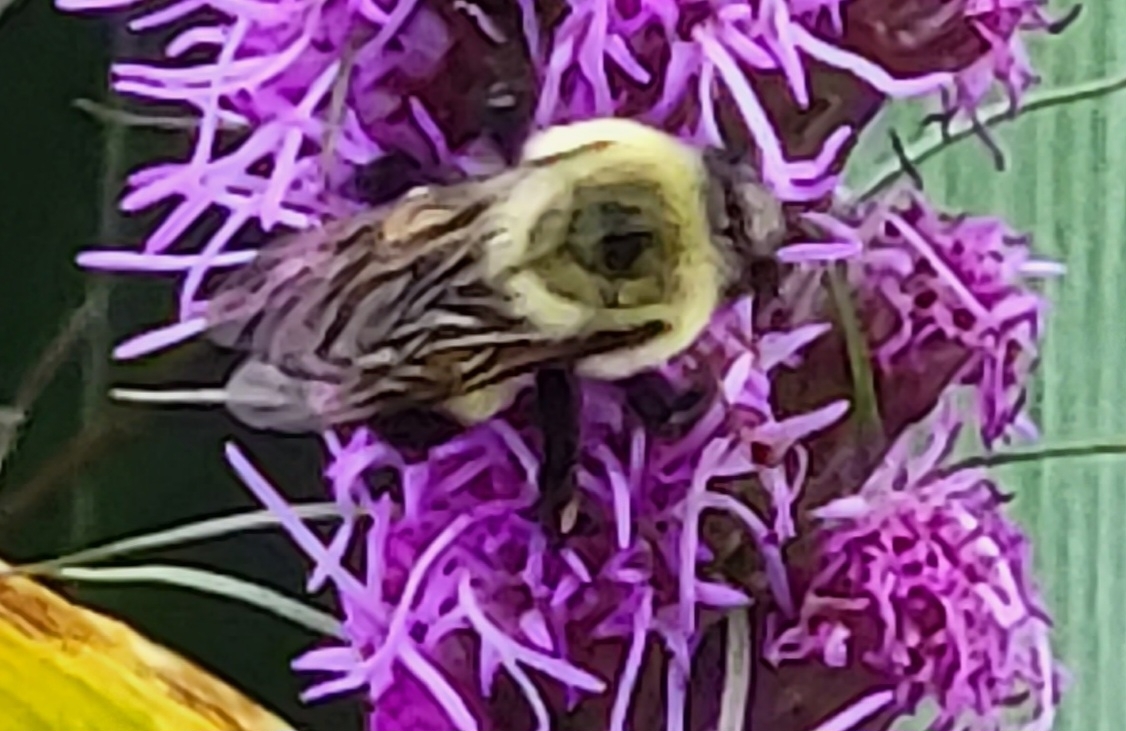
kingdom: Animalia
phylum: Arthropoda
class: Insecta
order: Hymenoptera
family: Apidae
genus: Bombus
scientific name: Bombus griseocollis
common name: Brown-belted bumble bee
